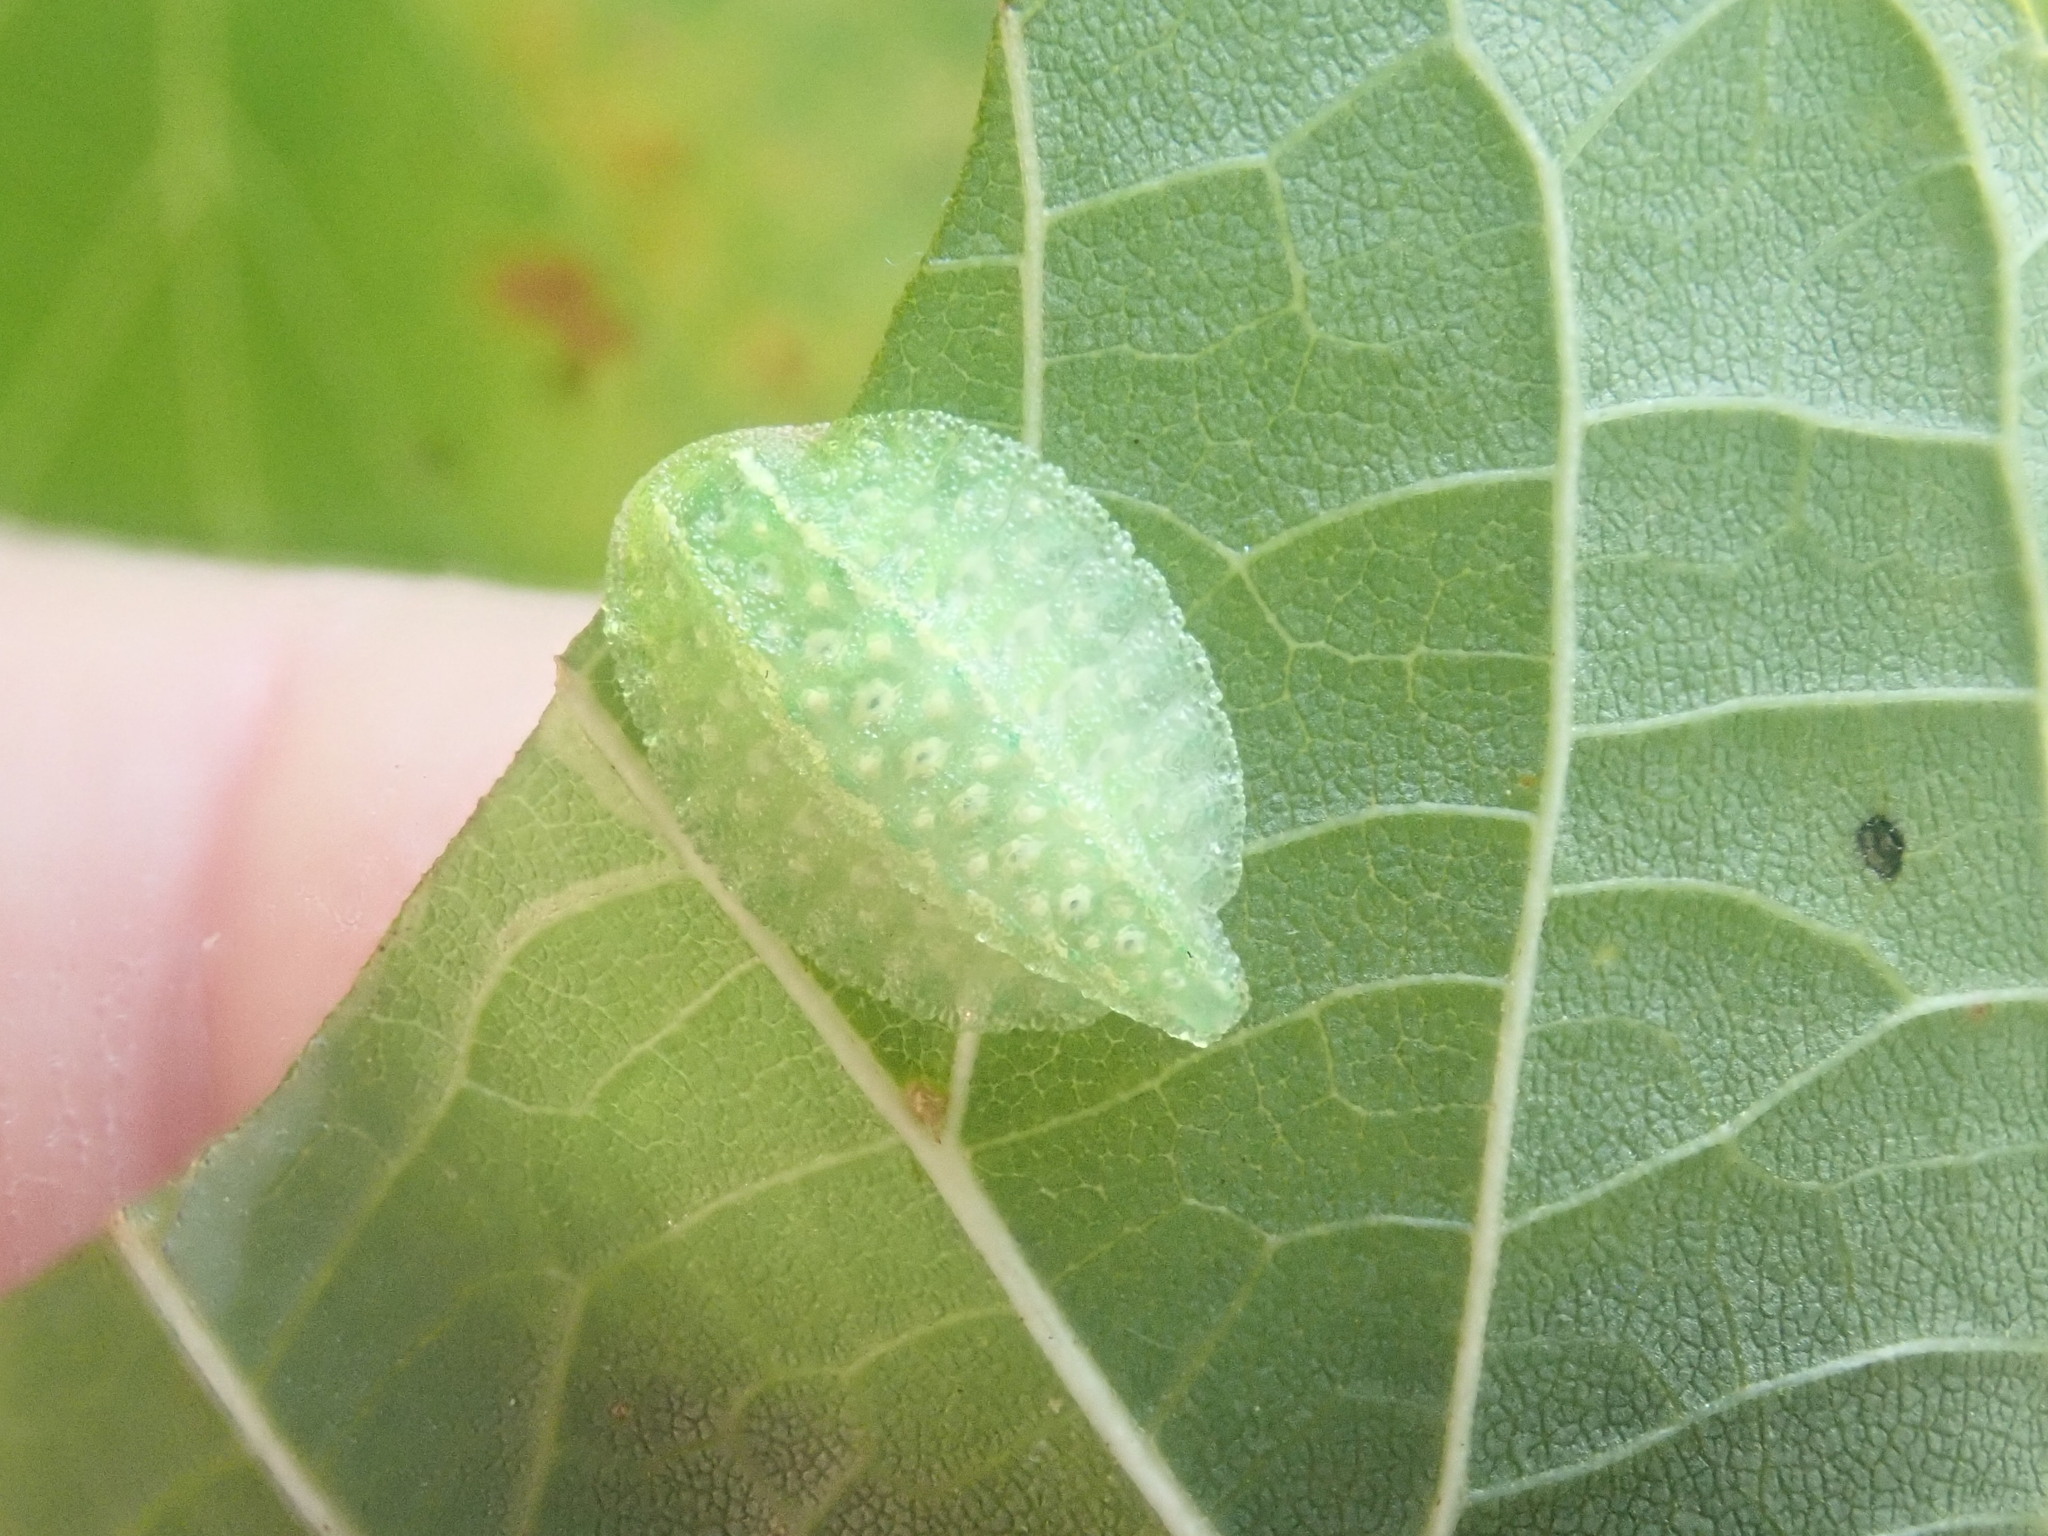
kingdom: Animalia
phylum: Arthropoda
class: Insecta
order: Lepidoptera
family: Limacodidae
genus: Lithacodes
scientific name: Lithacodes fasciola
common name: Yellow-shouldered slug moth
